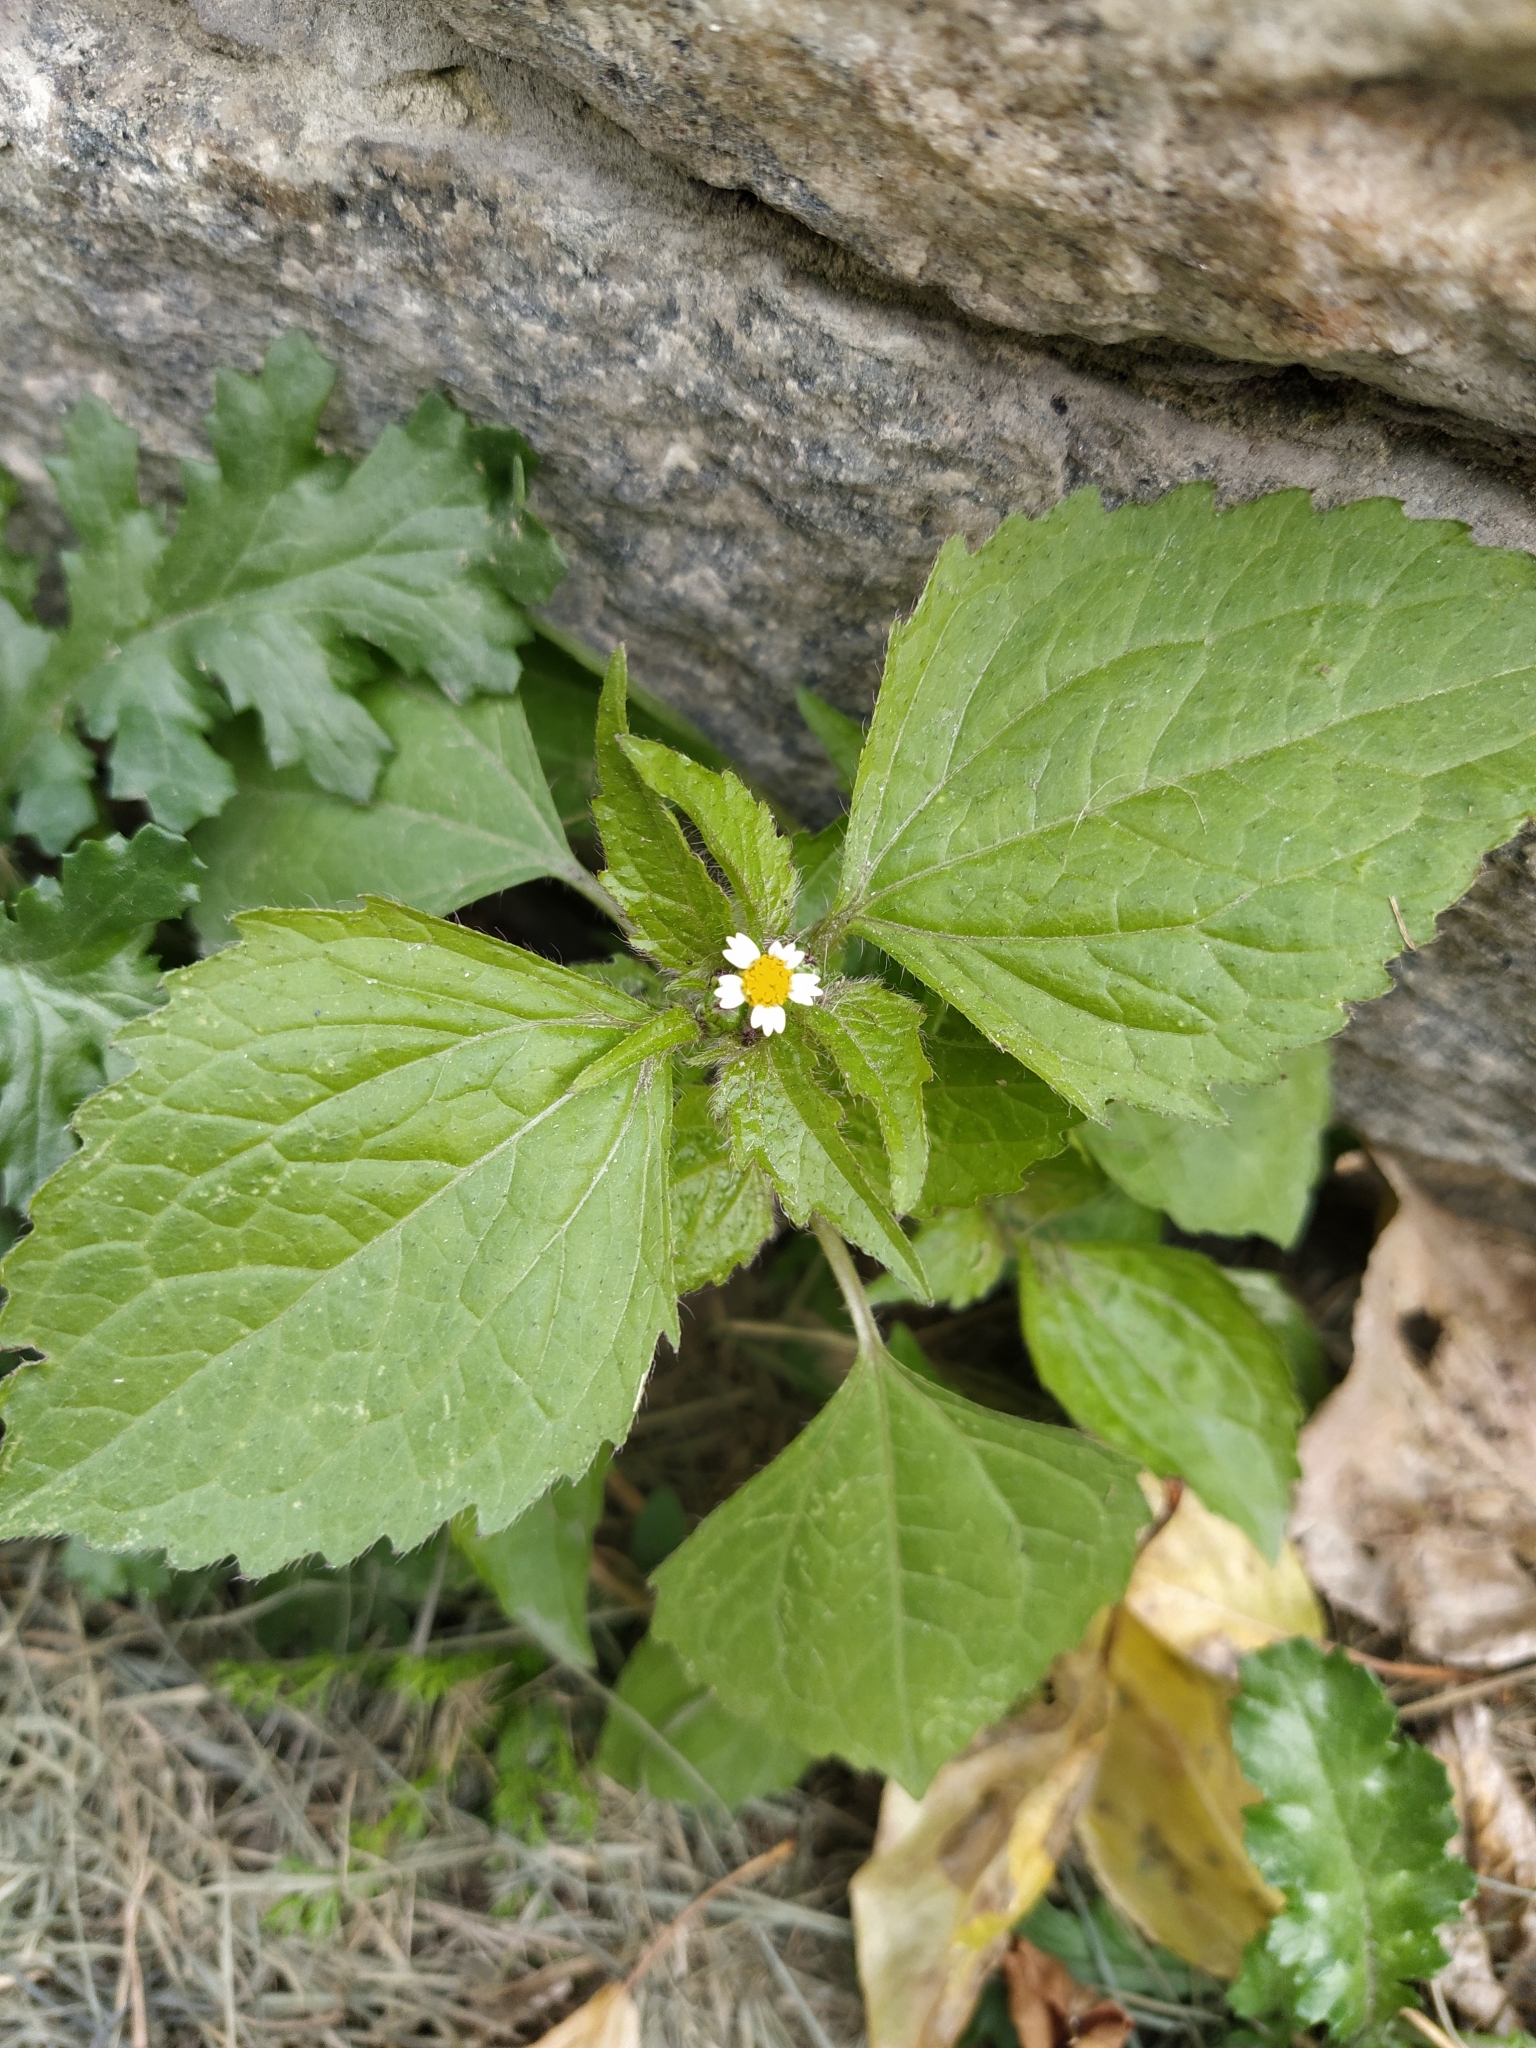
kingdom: Plantae
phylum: Tracheophyta
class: Magnoliopsida
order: Asterales
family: Asteraceae
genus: Galinsoga
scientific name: Galinsoga quadriradiata
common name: Shaggy soldier
